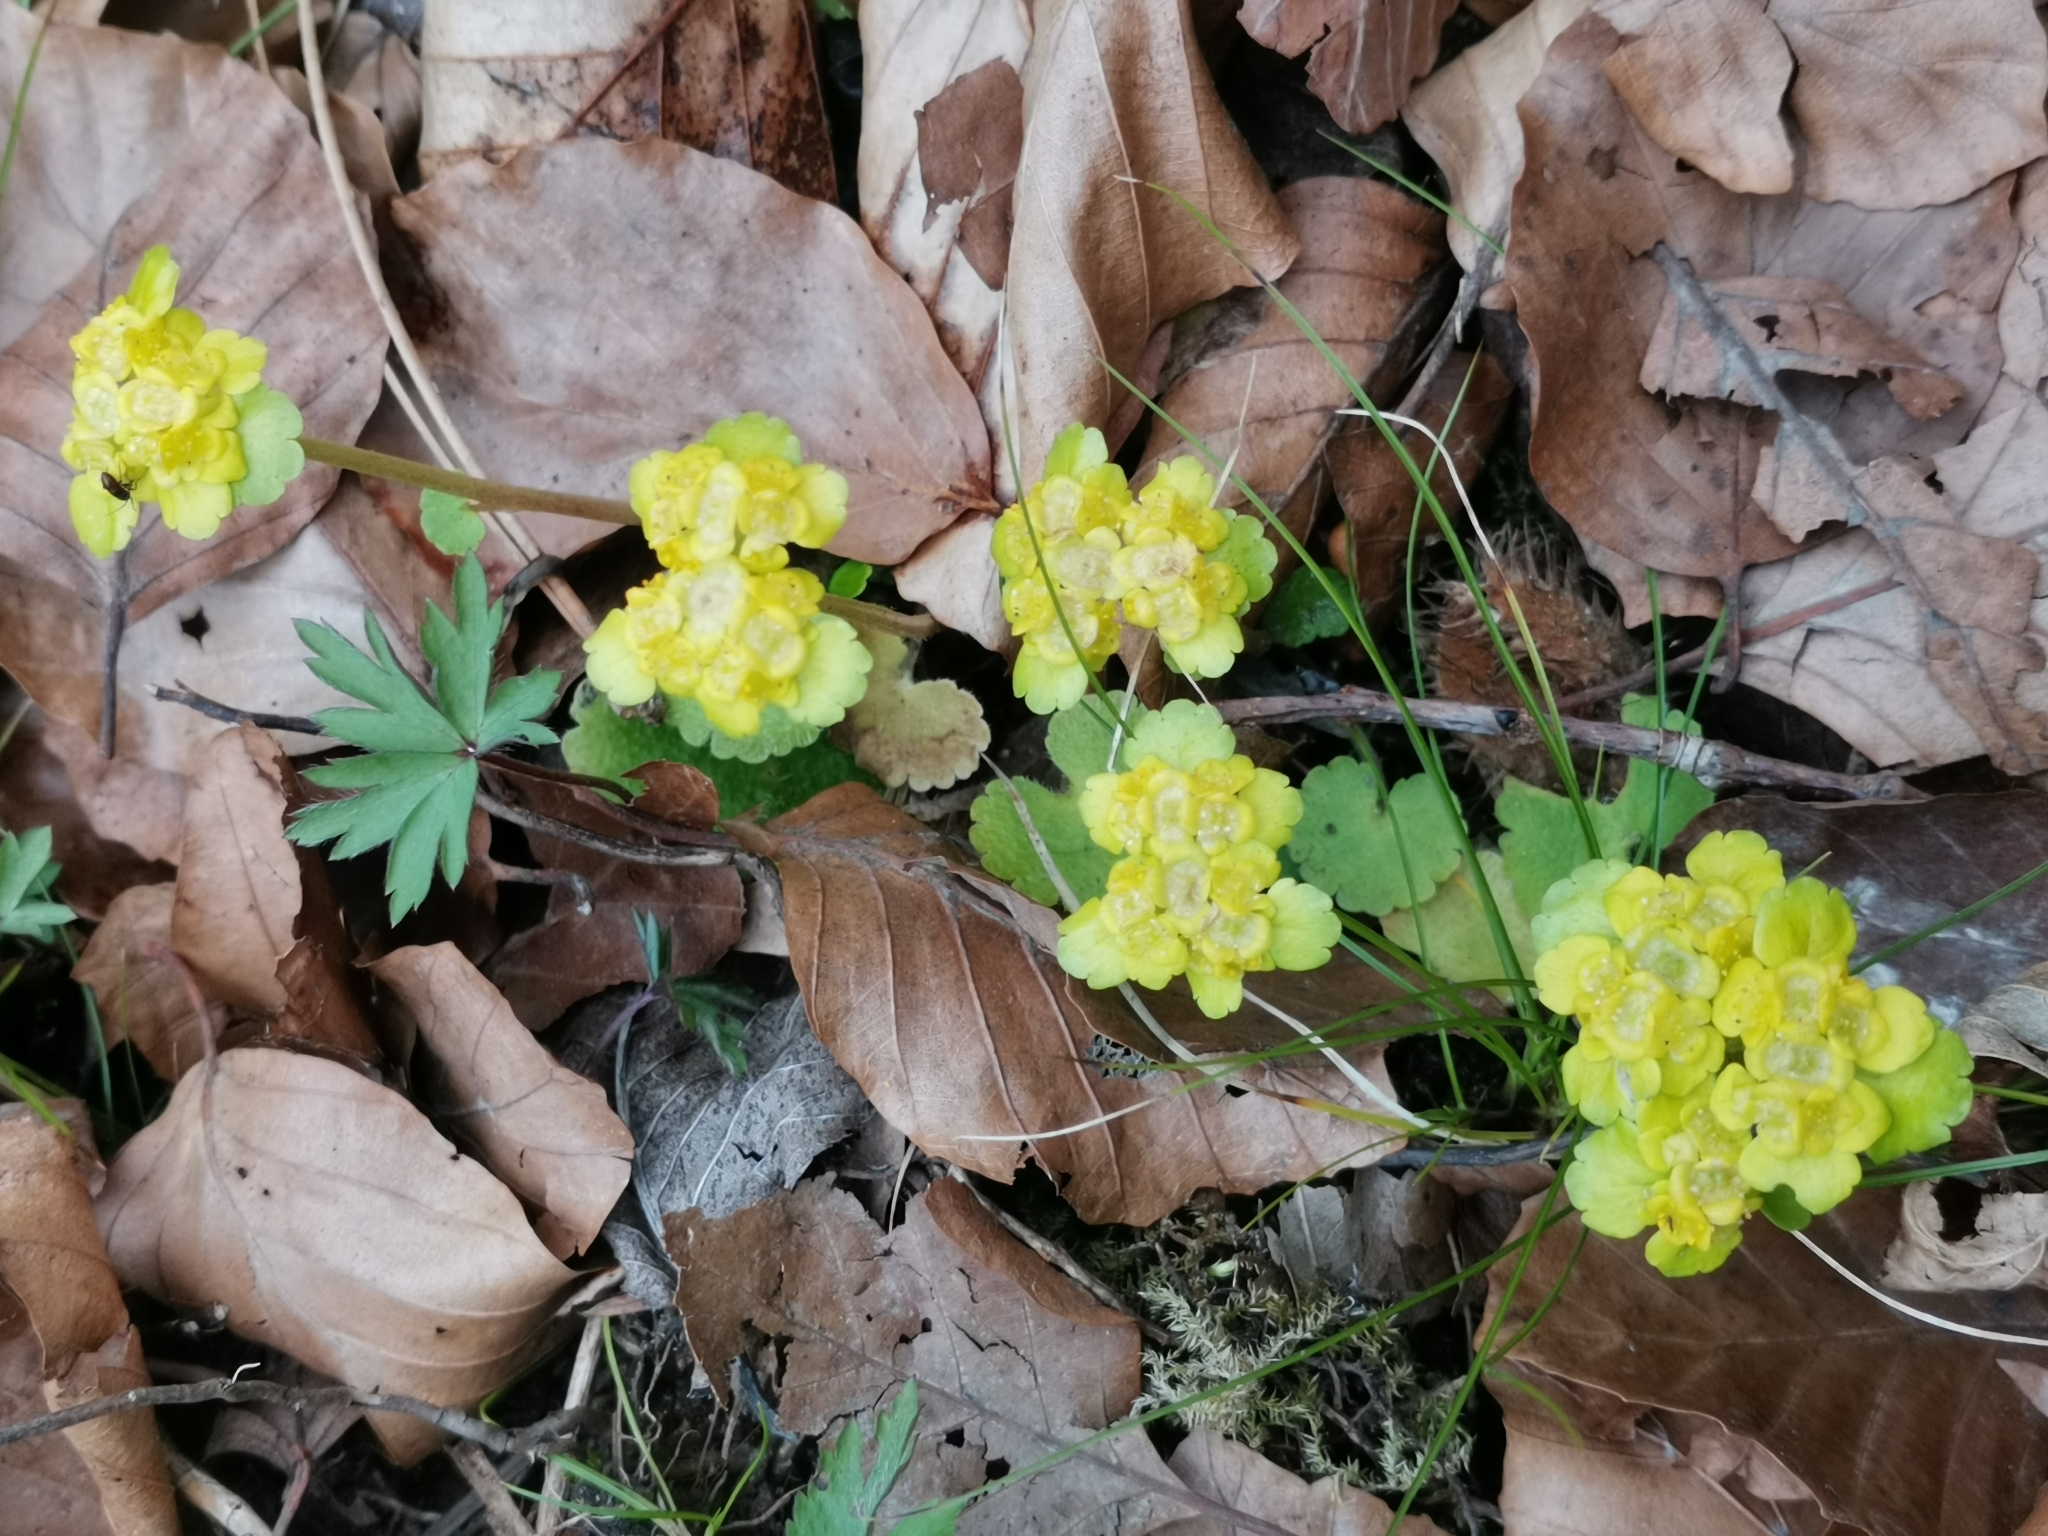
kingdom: Plantae
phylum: Tracheophyta
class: Magnoliopsida
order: Saxifragales
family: Saxifragaceae
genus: Chrysosplenium
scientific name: Chrysosplenium alternifolium
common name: Alternate-leaved golden-saxifrage
